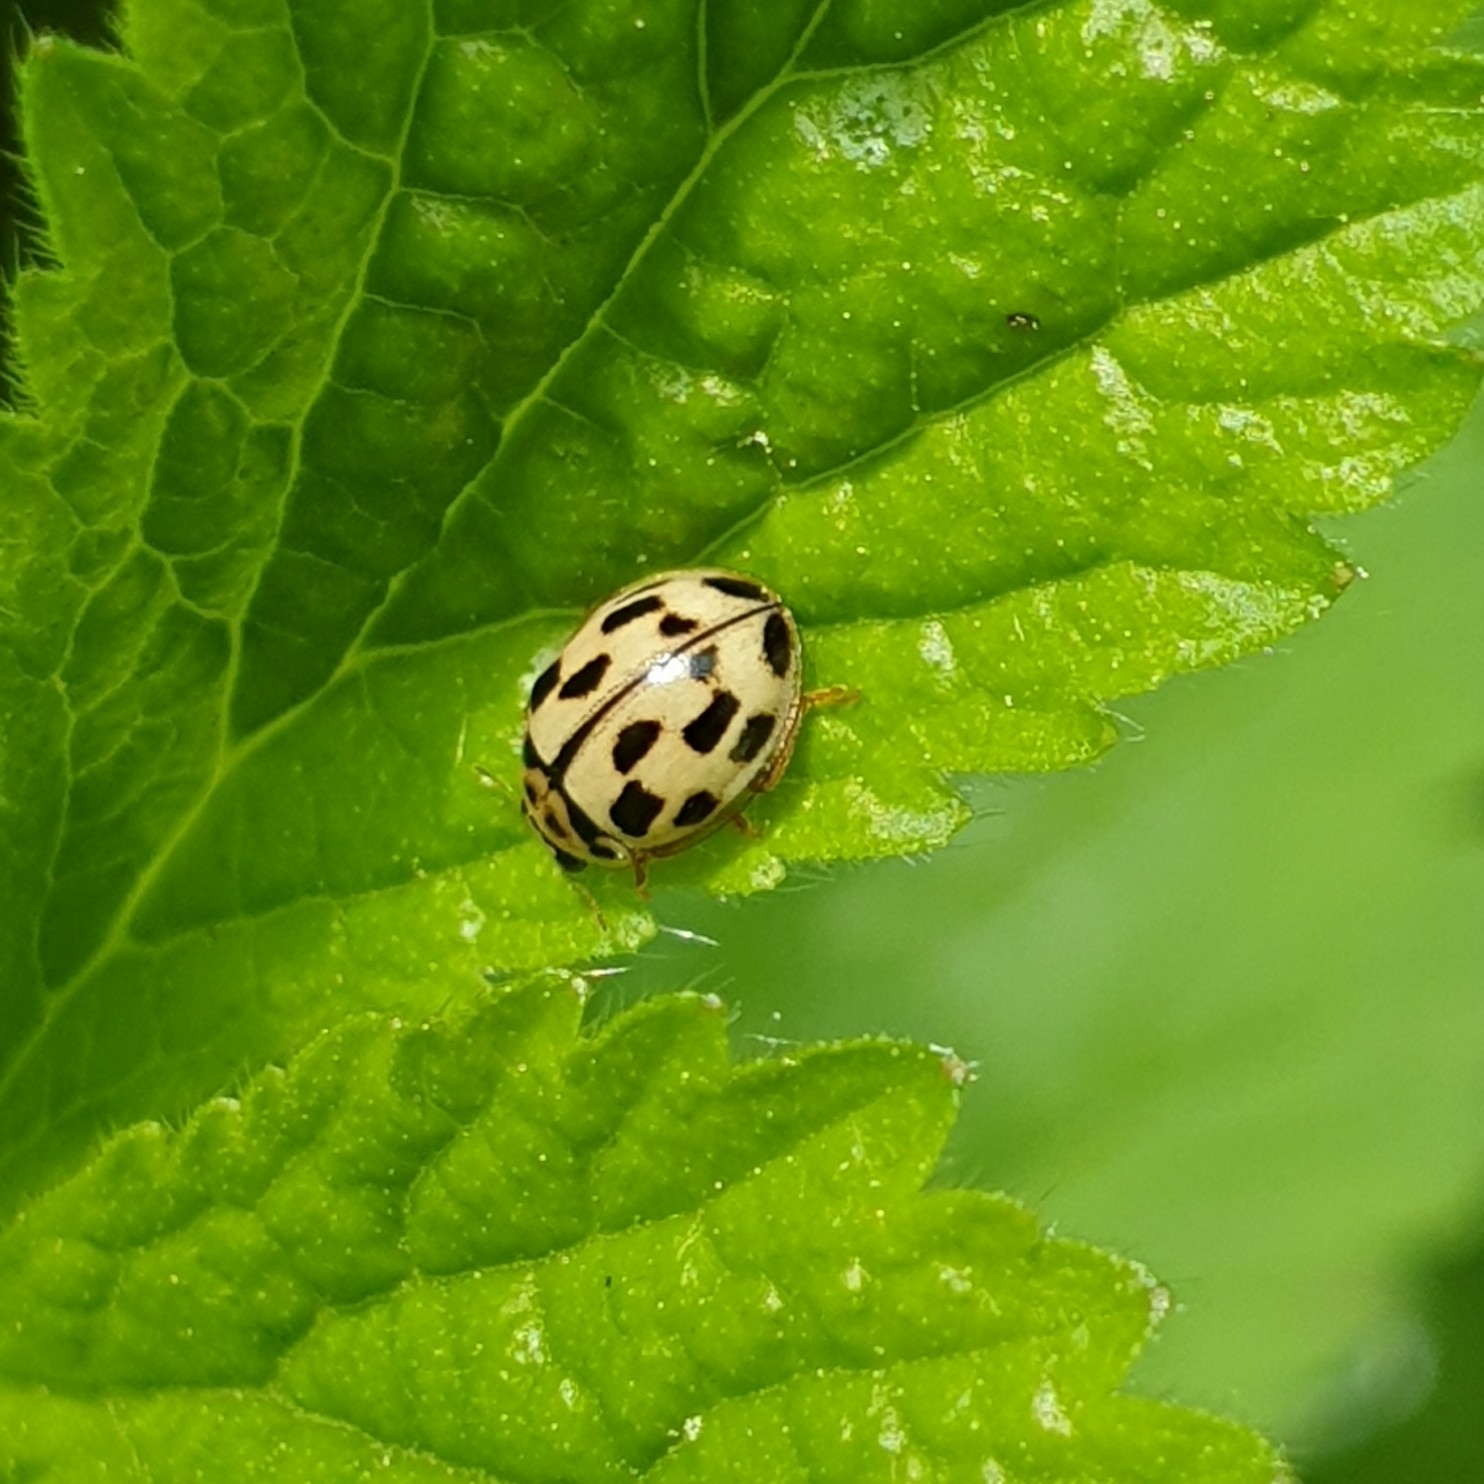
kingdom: Animalia
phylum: Arthropoda
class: Insecta
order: Coleoptera
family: Coccinellidae
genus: Propylaea
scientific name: Propylaea quatuordecimpunctata
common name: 14-spotted ladybird beetle
